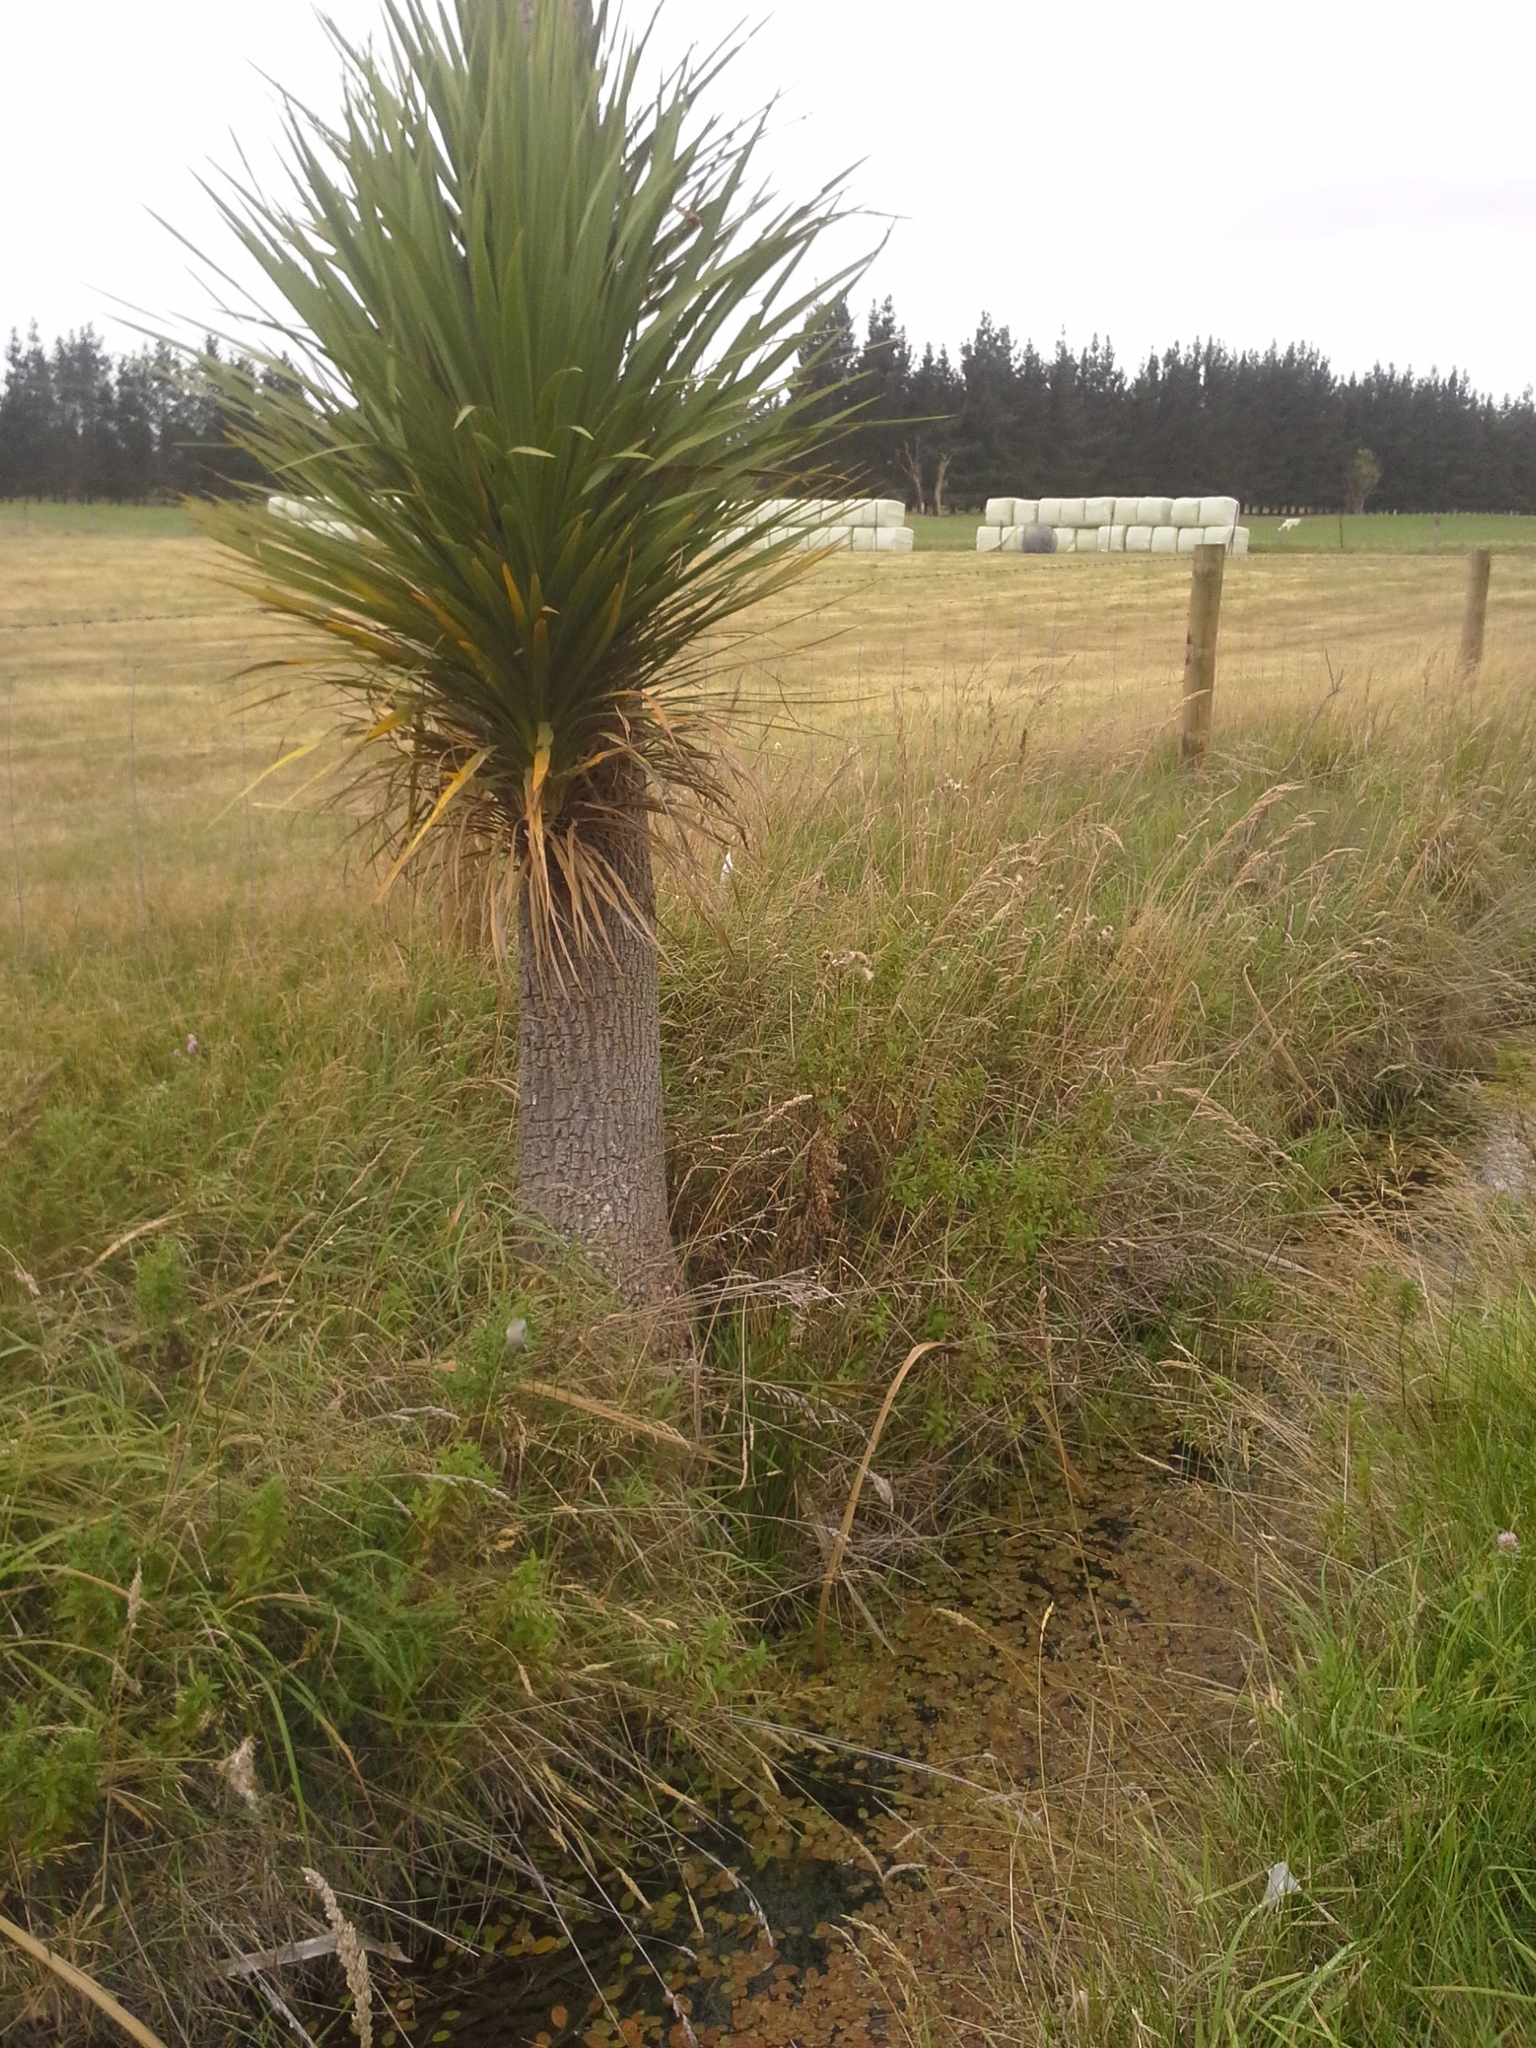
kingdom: Plantae
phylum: Tracheophyta
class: Liliopsida
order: Asparagales
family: Asparagaceae
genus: Cordyline
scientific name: Cordyline australis
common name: Cabbage-palm
